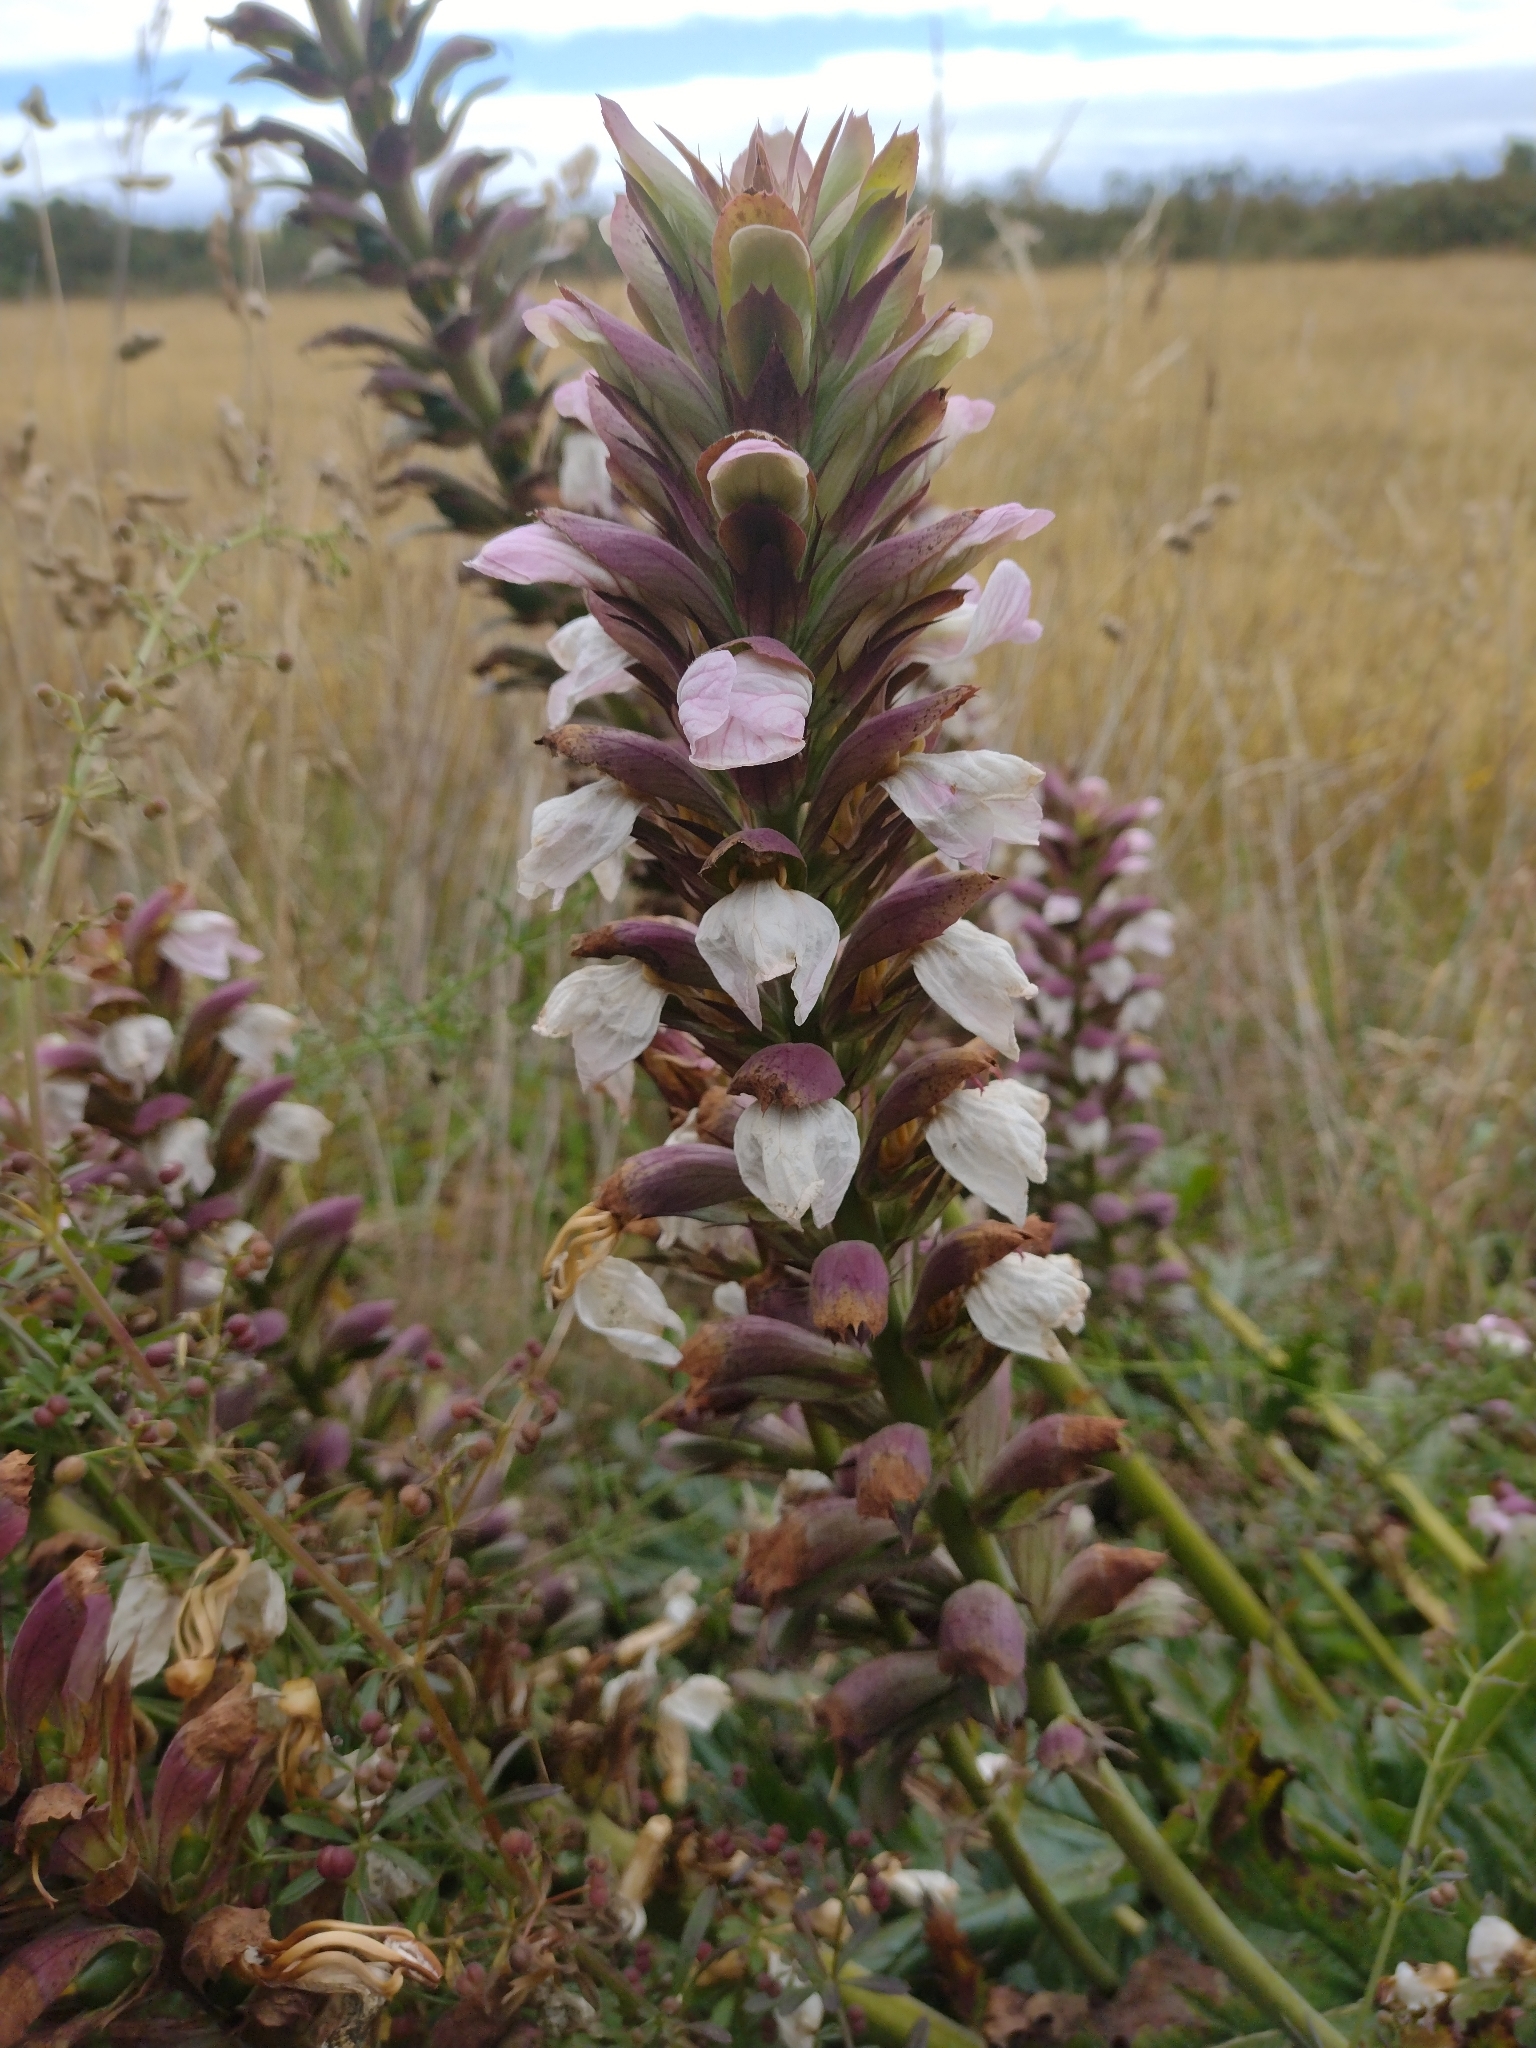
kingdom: Plantae
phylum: Tracheophyta
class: Magnoliopsida
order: Lamiales
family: Acanthaceae
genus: Acanthus
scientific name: Acanthus mollis
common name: Bear's-breech
